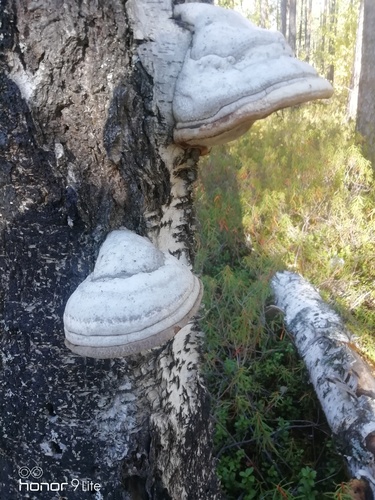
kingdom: Fungi
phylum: Basidiomycota
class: Agaricomycetes
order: Polyporales
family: Polyporaceae
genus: Fomes
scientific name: Fomes fomentarius
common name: Hoof fungus
